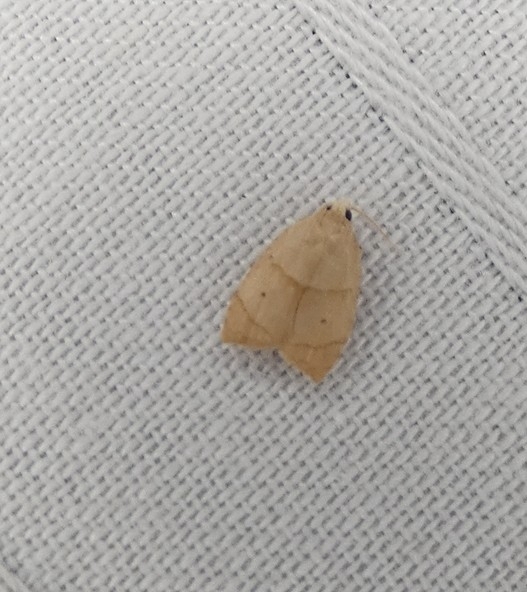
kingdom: Animalia
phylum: Arthropoda
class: Insecta
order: Lepidoptera
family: Tortricidae
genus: Coelostathma
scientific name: Coelostathma discopunctana
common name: Batman moth
